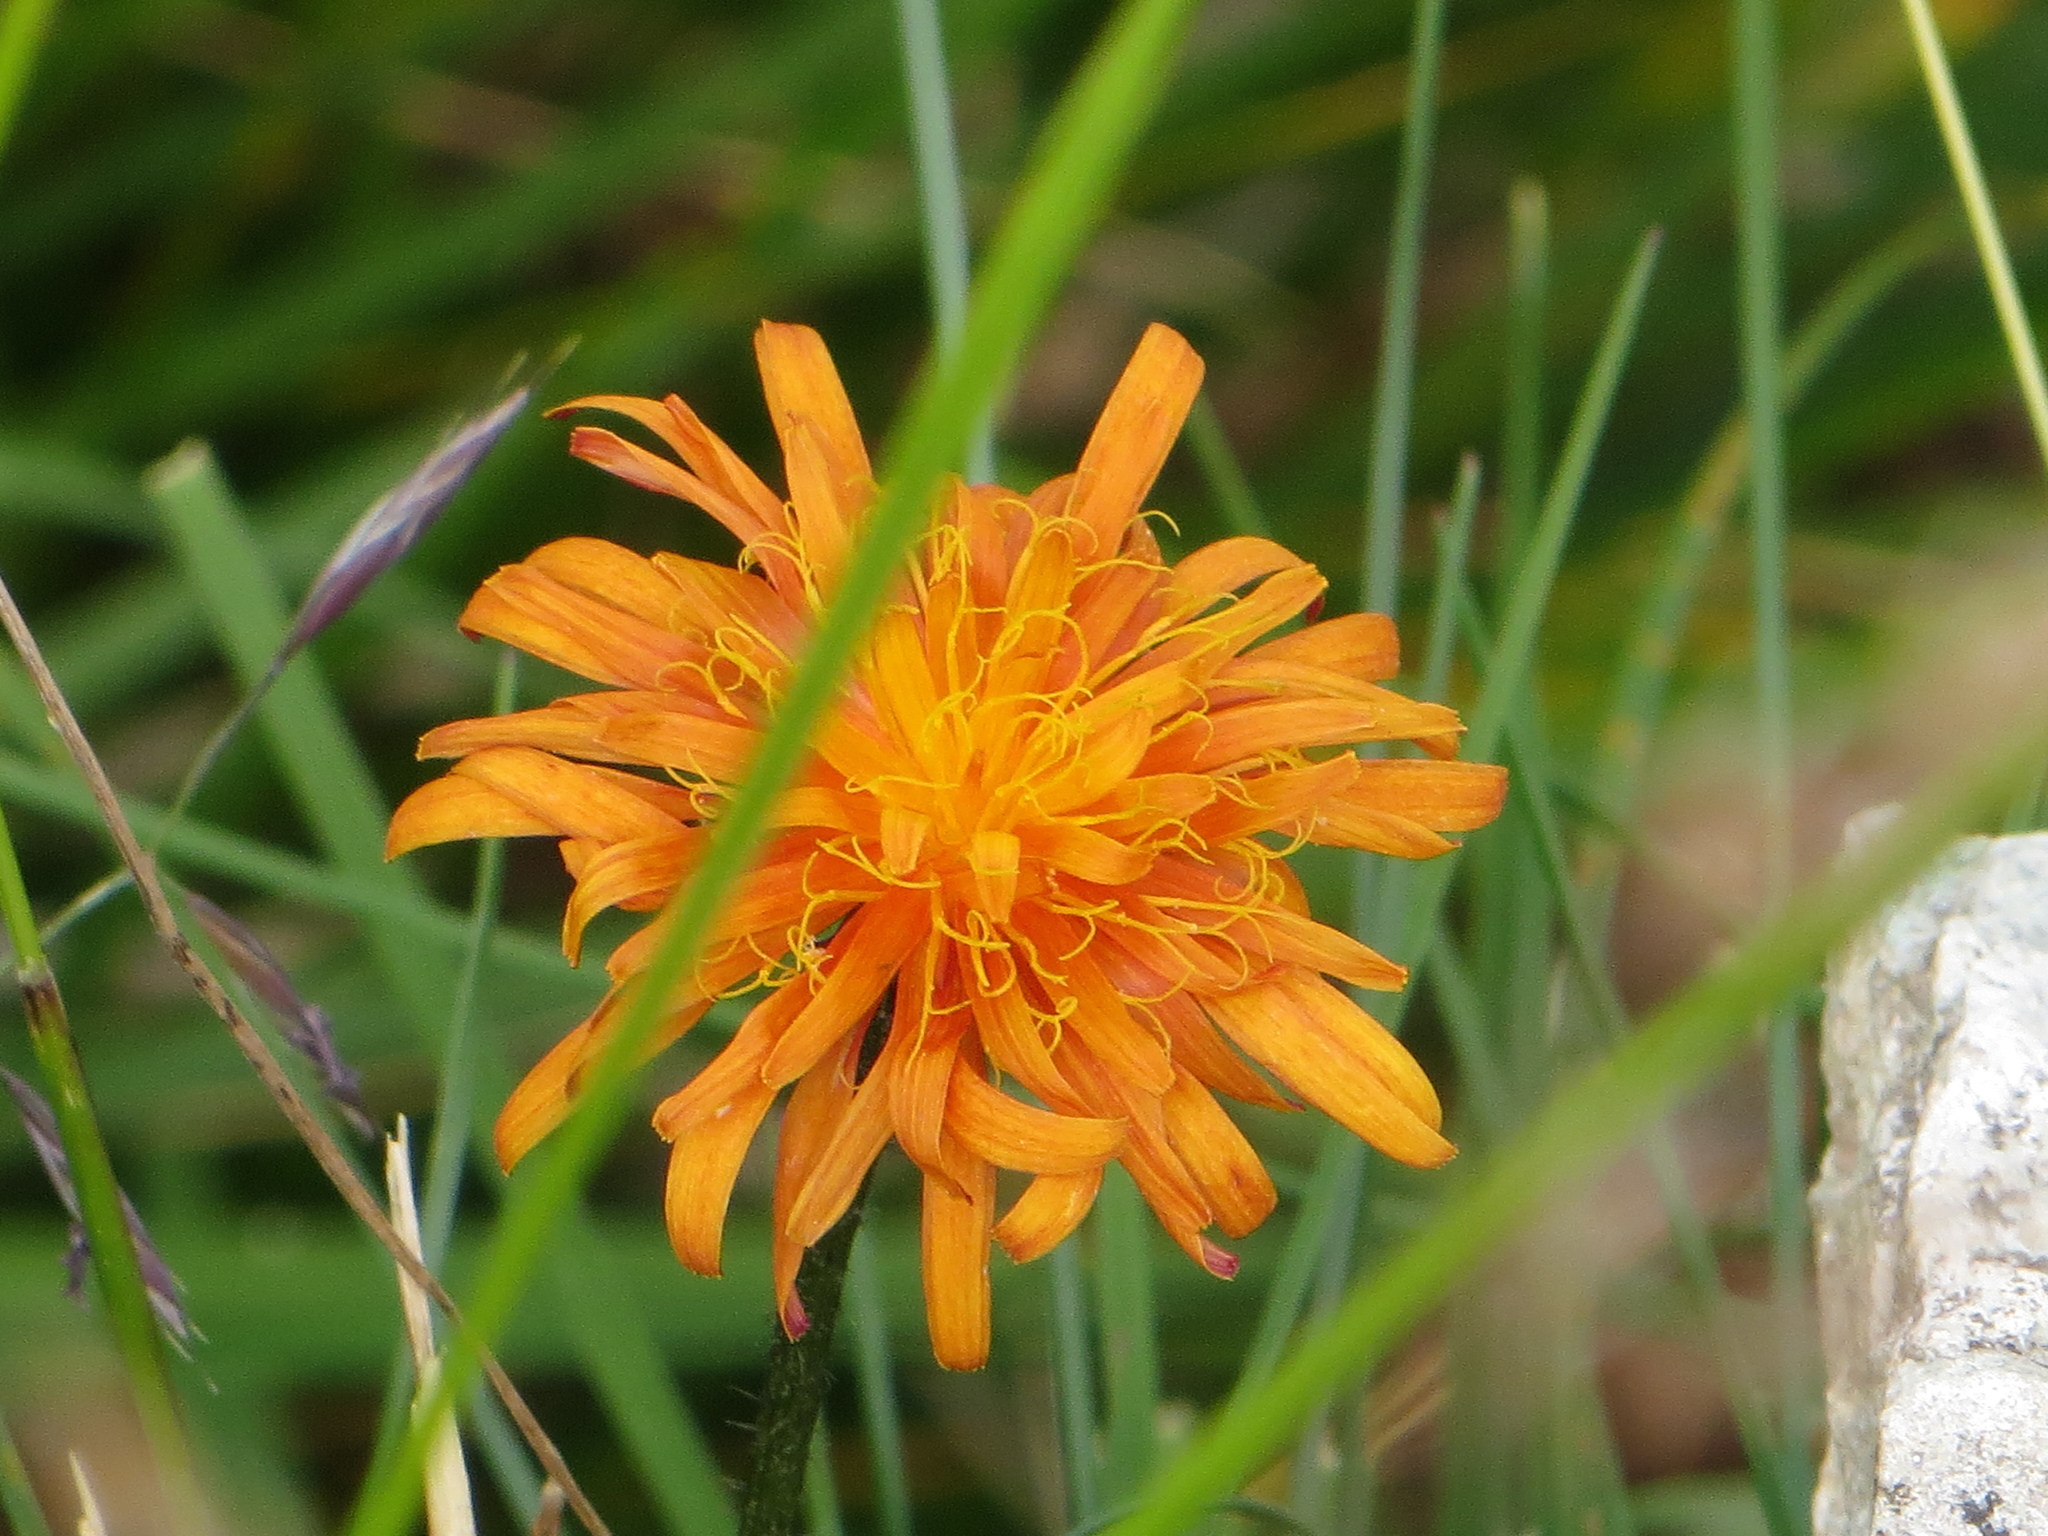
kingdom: Plantae
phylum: Tracheophyta
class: Magnoliopsida
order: Asterales
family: Asteraceae
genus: Crepis
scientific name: Crepis aurea
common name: Golden hawk's-beard
